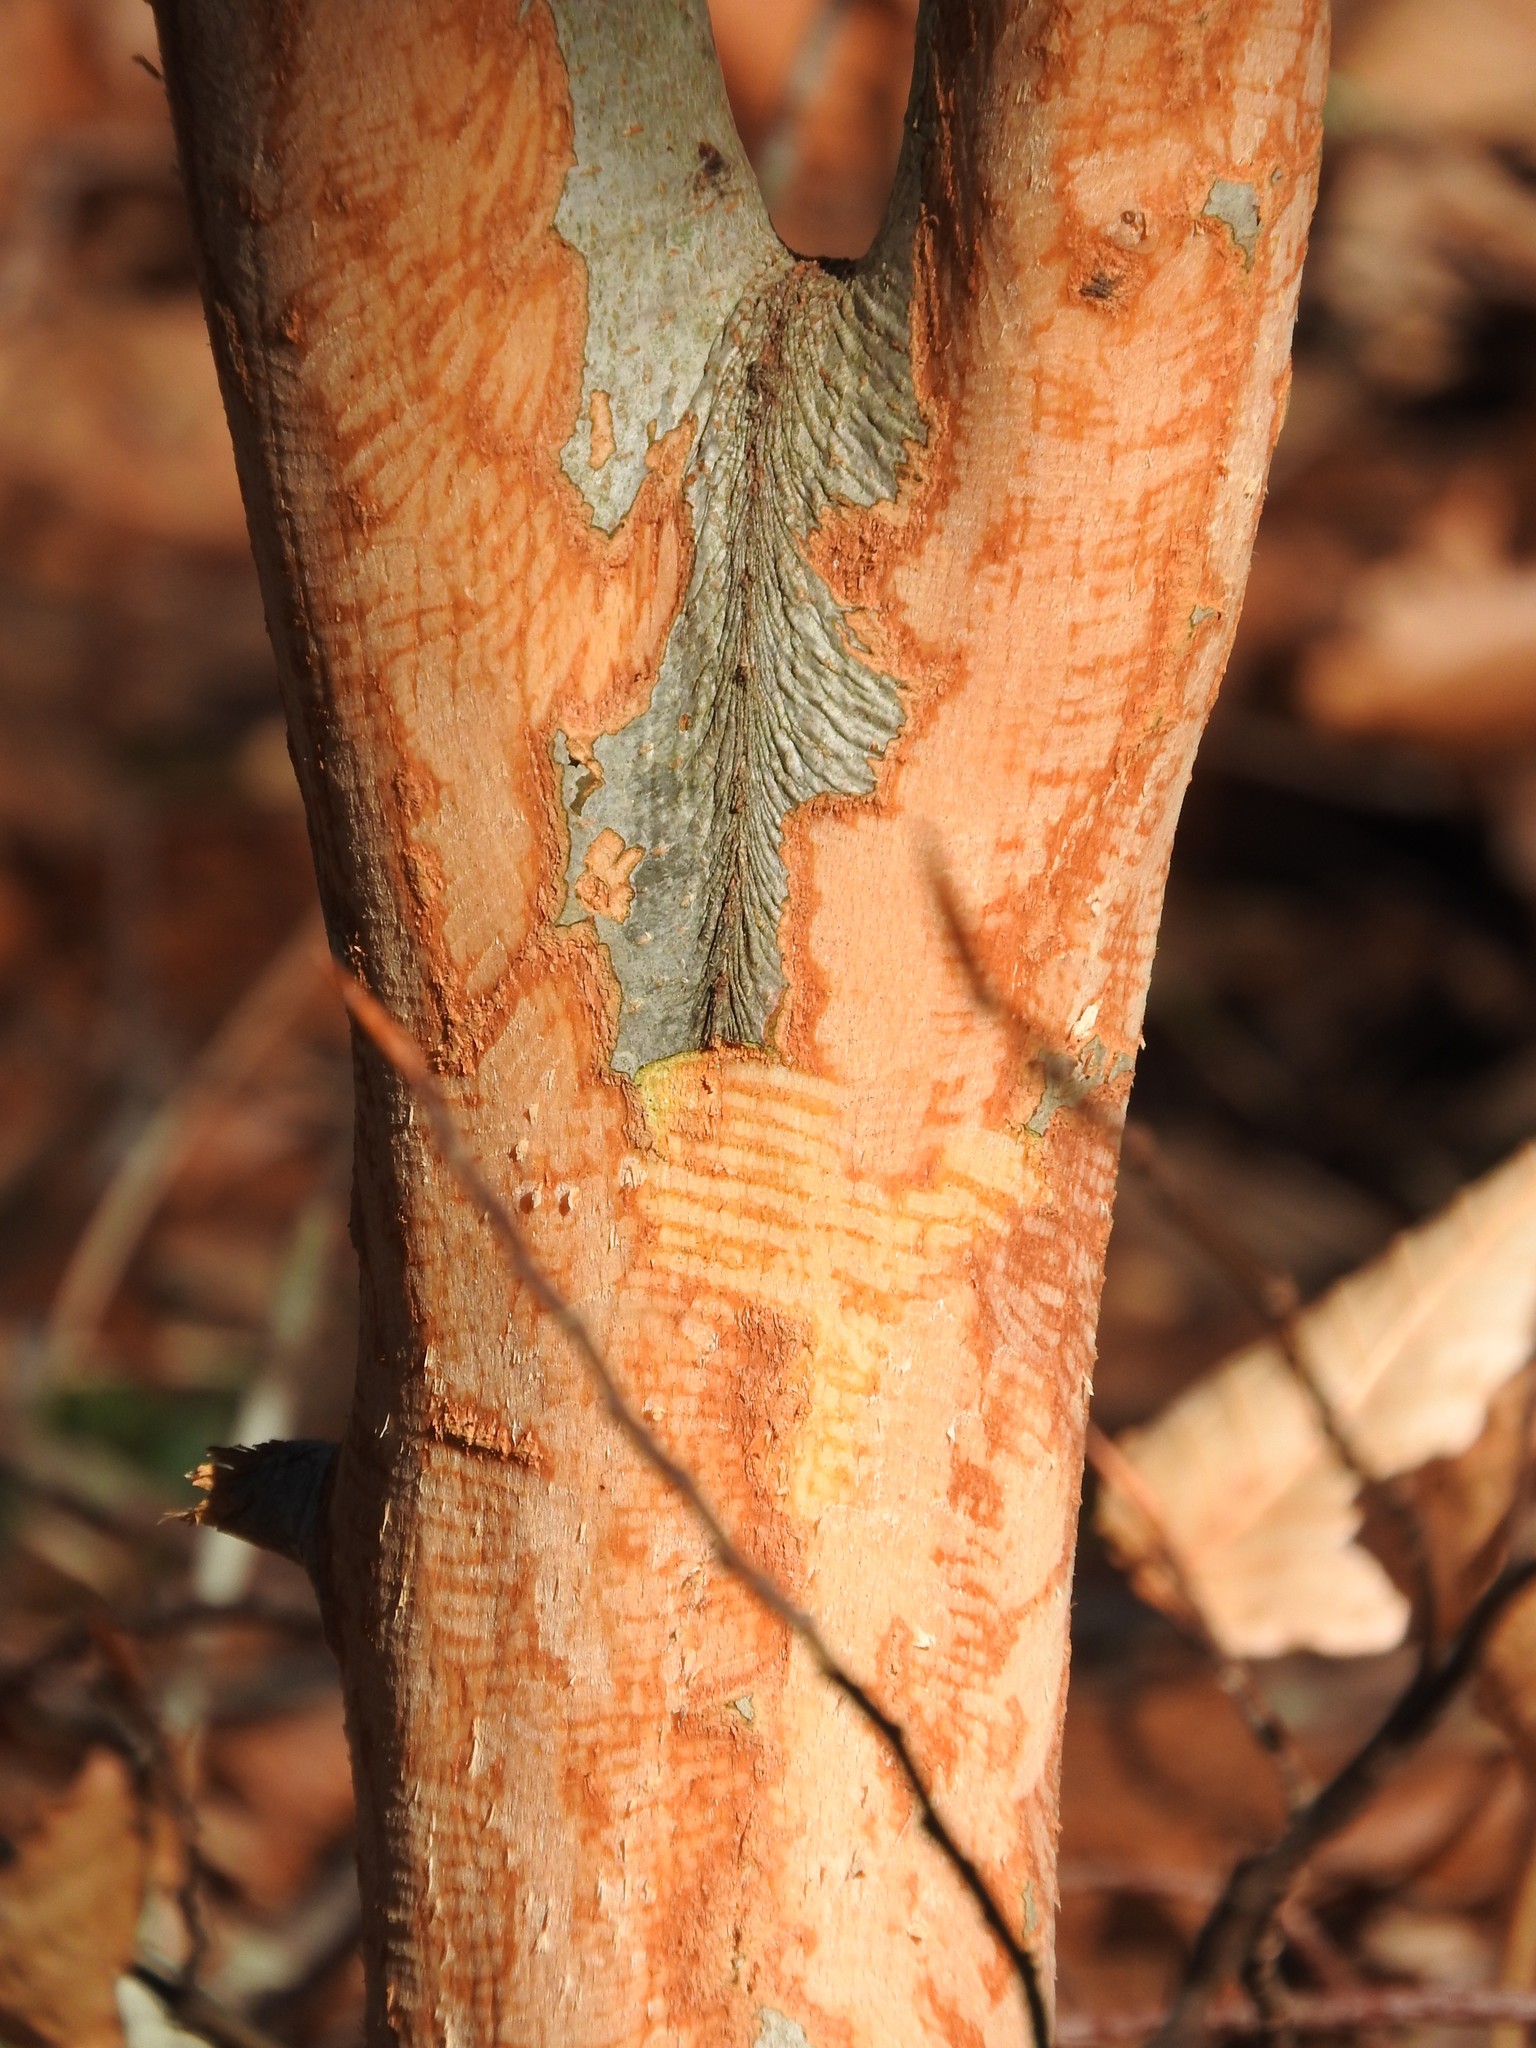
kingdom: Animalia
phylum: Chordata
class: Mammalia
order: Rodentia
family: Erethizontidae
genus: Erethizon
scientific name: Erethizon dorsatus
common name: North american porcupine
